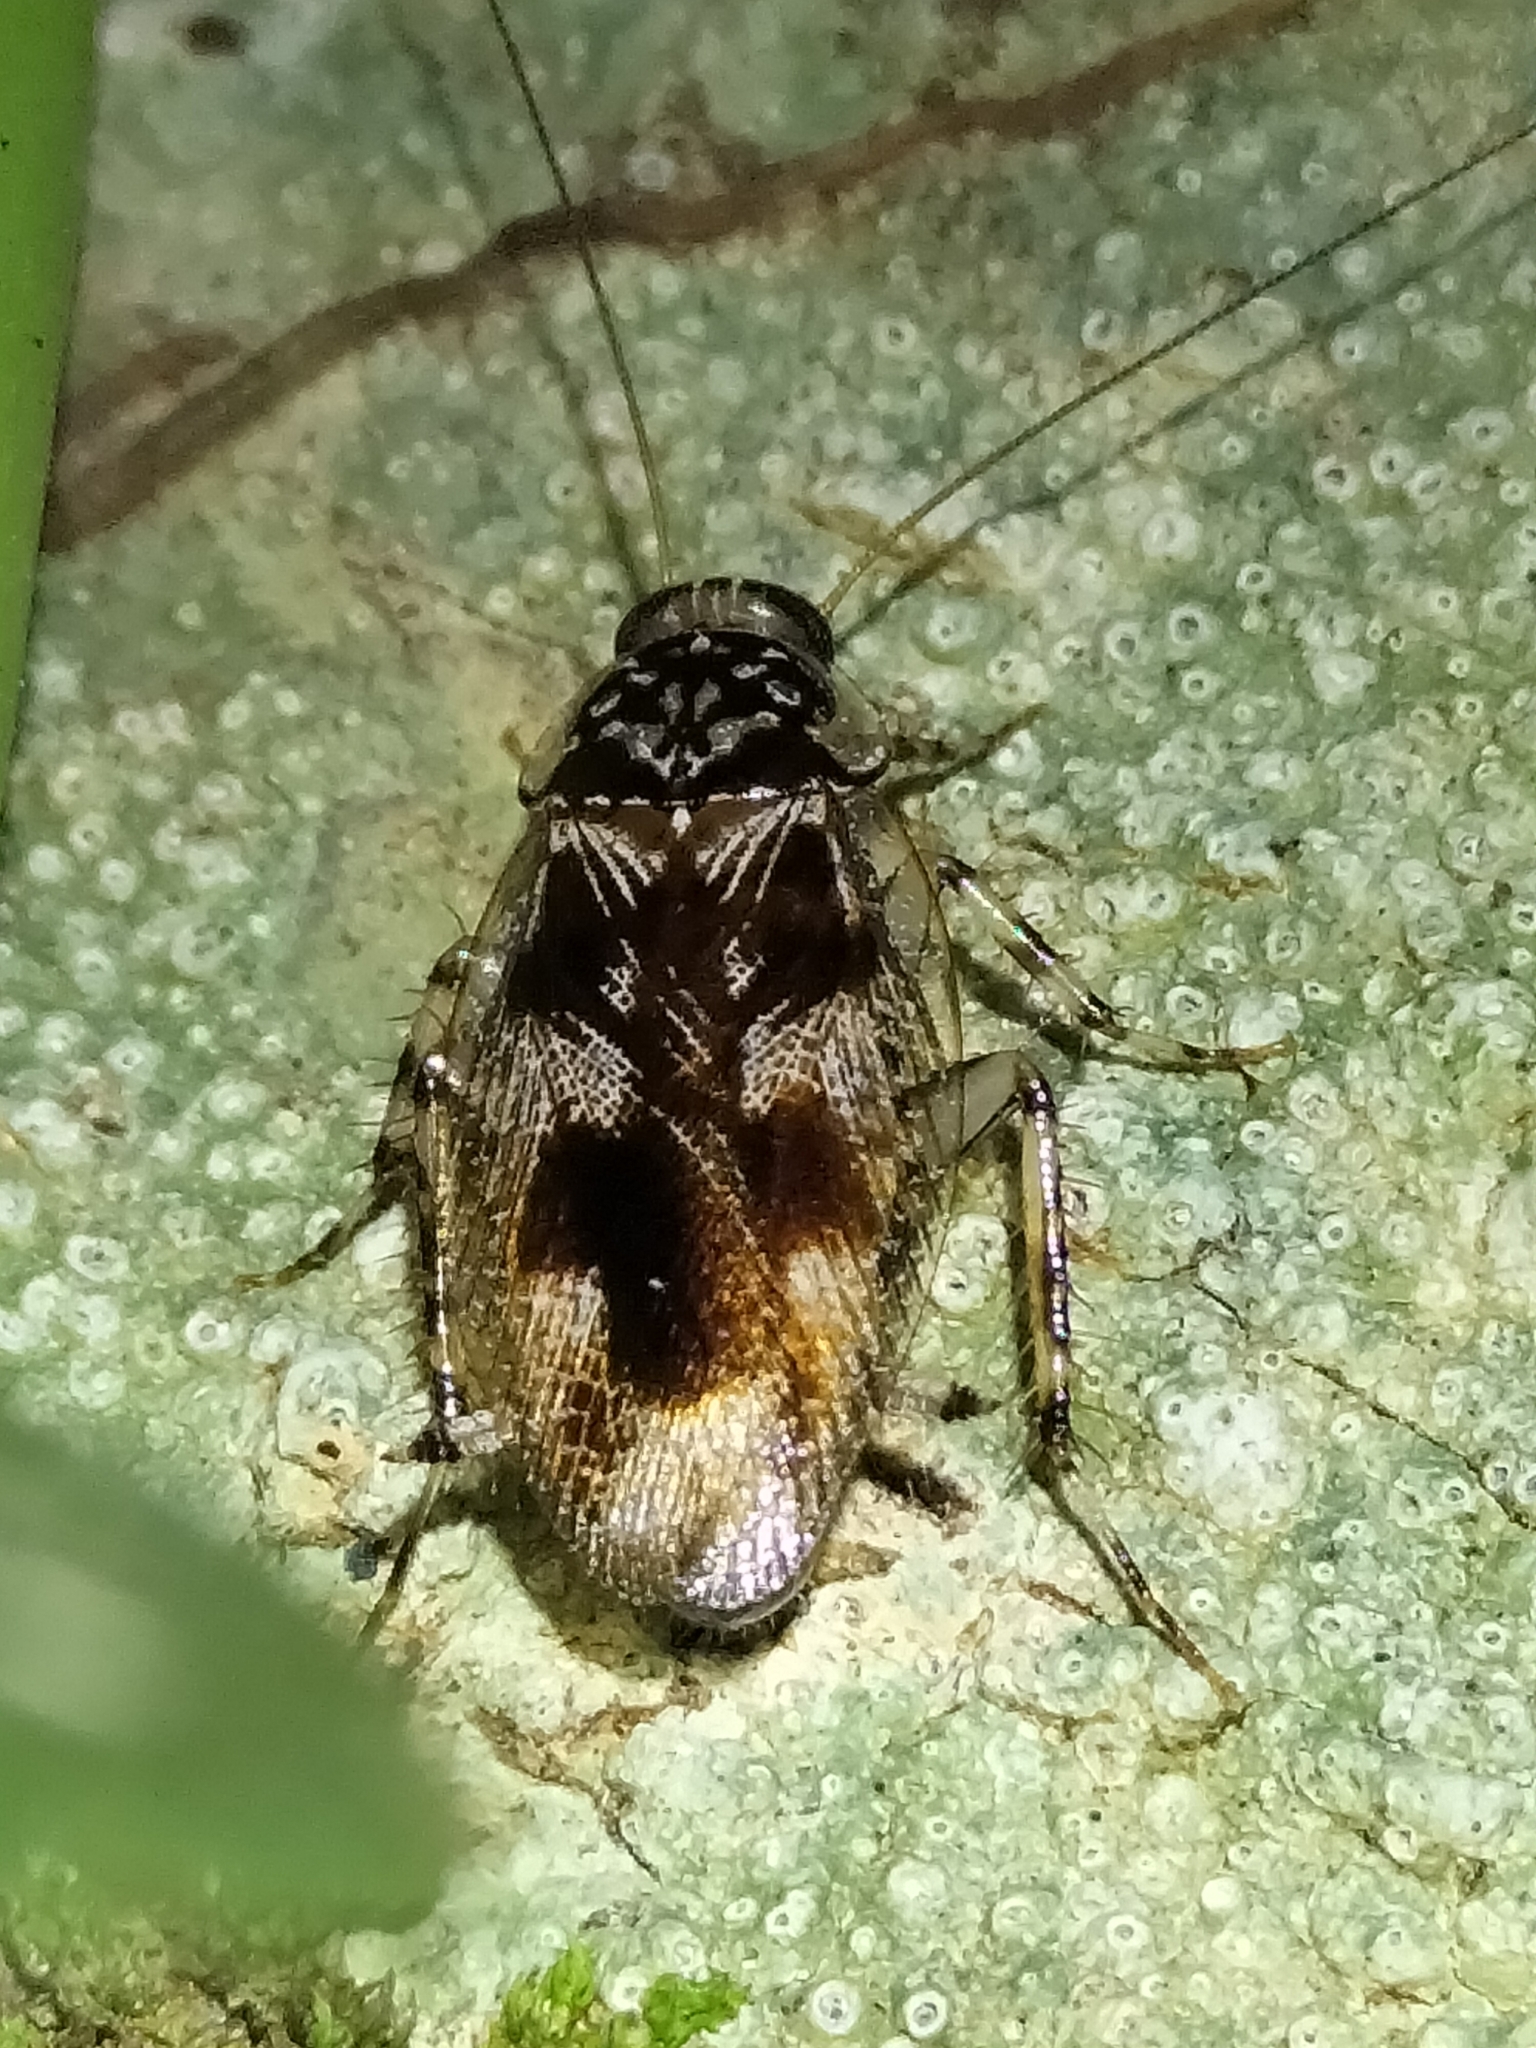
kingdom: Animalia
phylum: Arthropoda
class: Insecta
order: Blattodea
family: Ectobiidae
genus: Allacta
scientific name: Allacta australiensis
